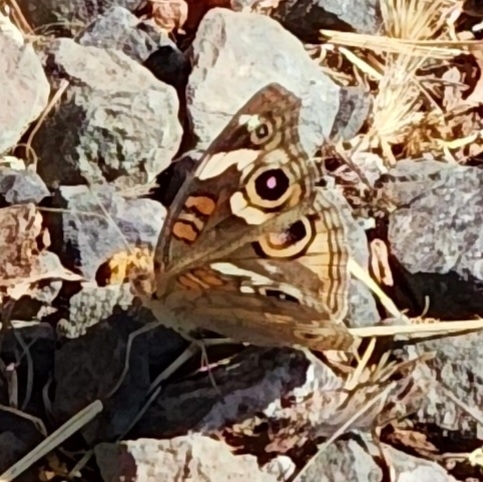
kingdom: Animalia
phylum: Arthropoda
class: Insecta
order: Lepidoptera
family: Nymphalidae
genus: Junonia
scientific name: Junonia grisea
